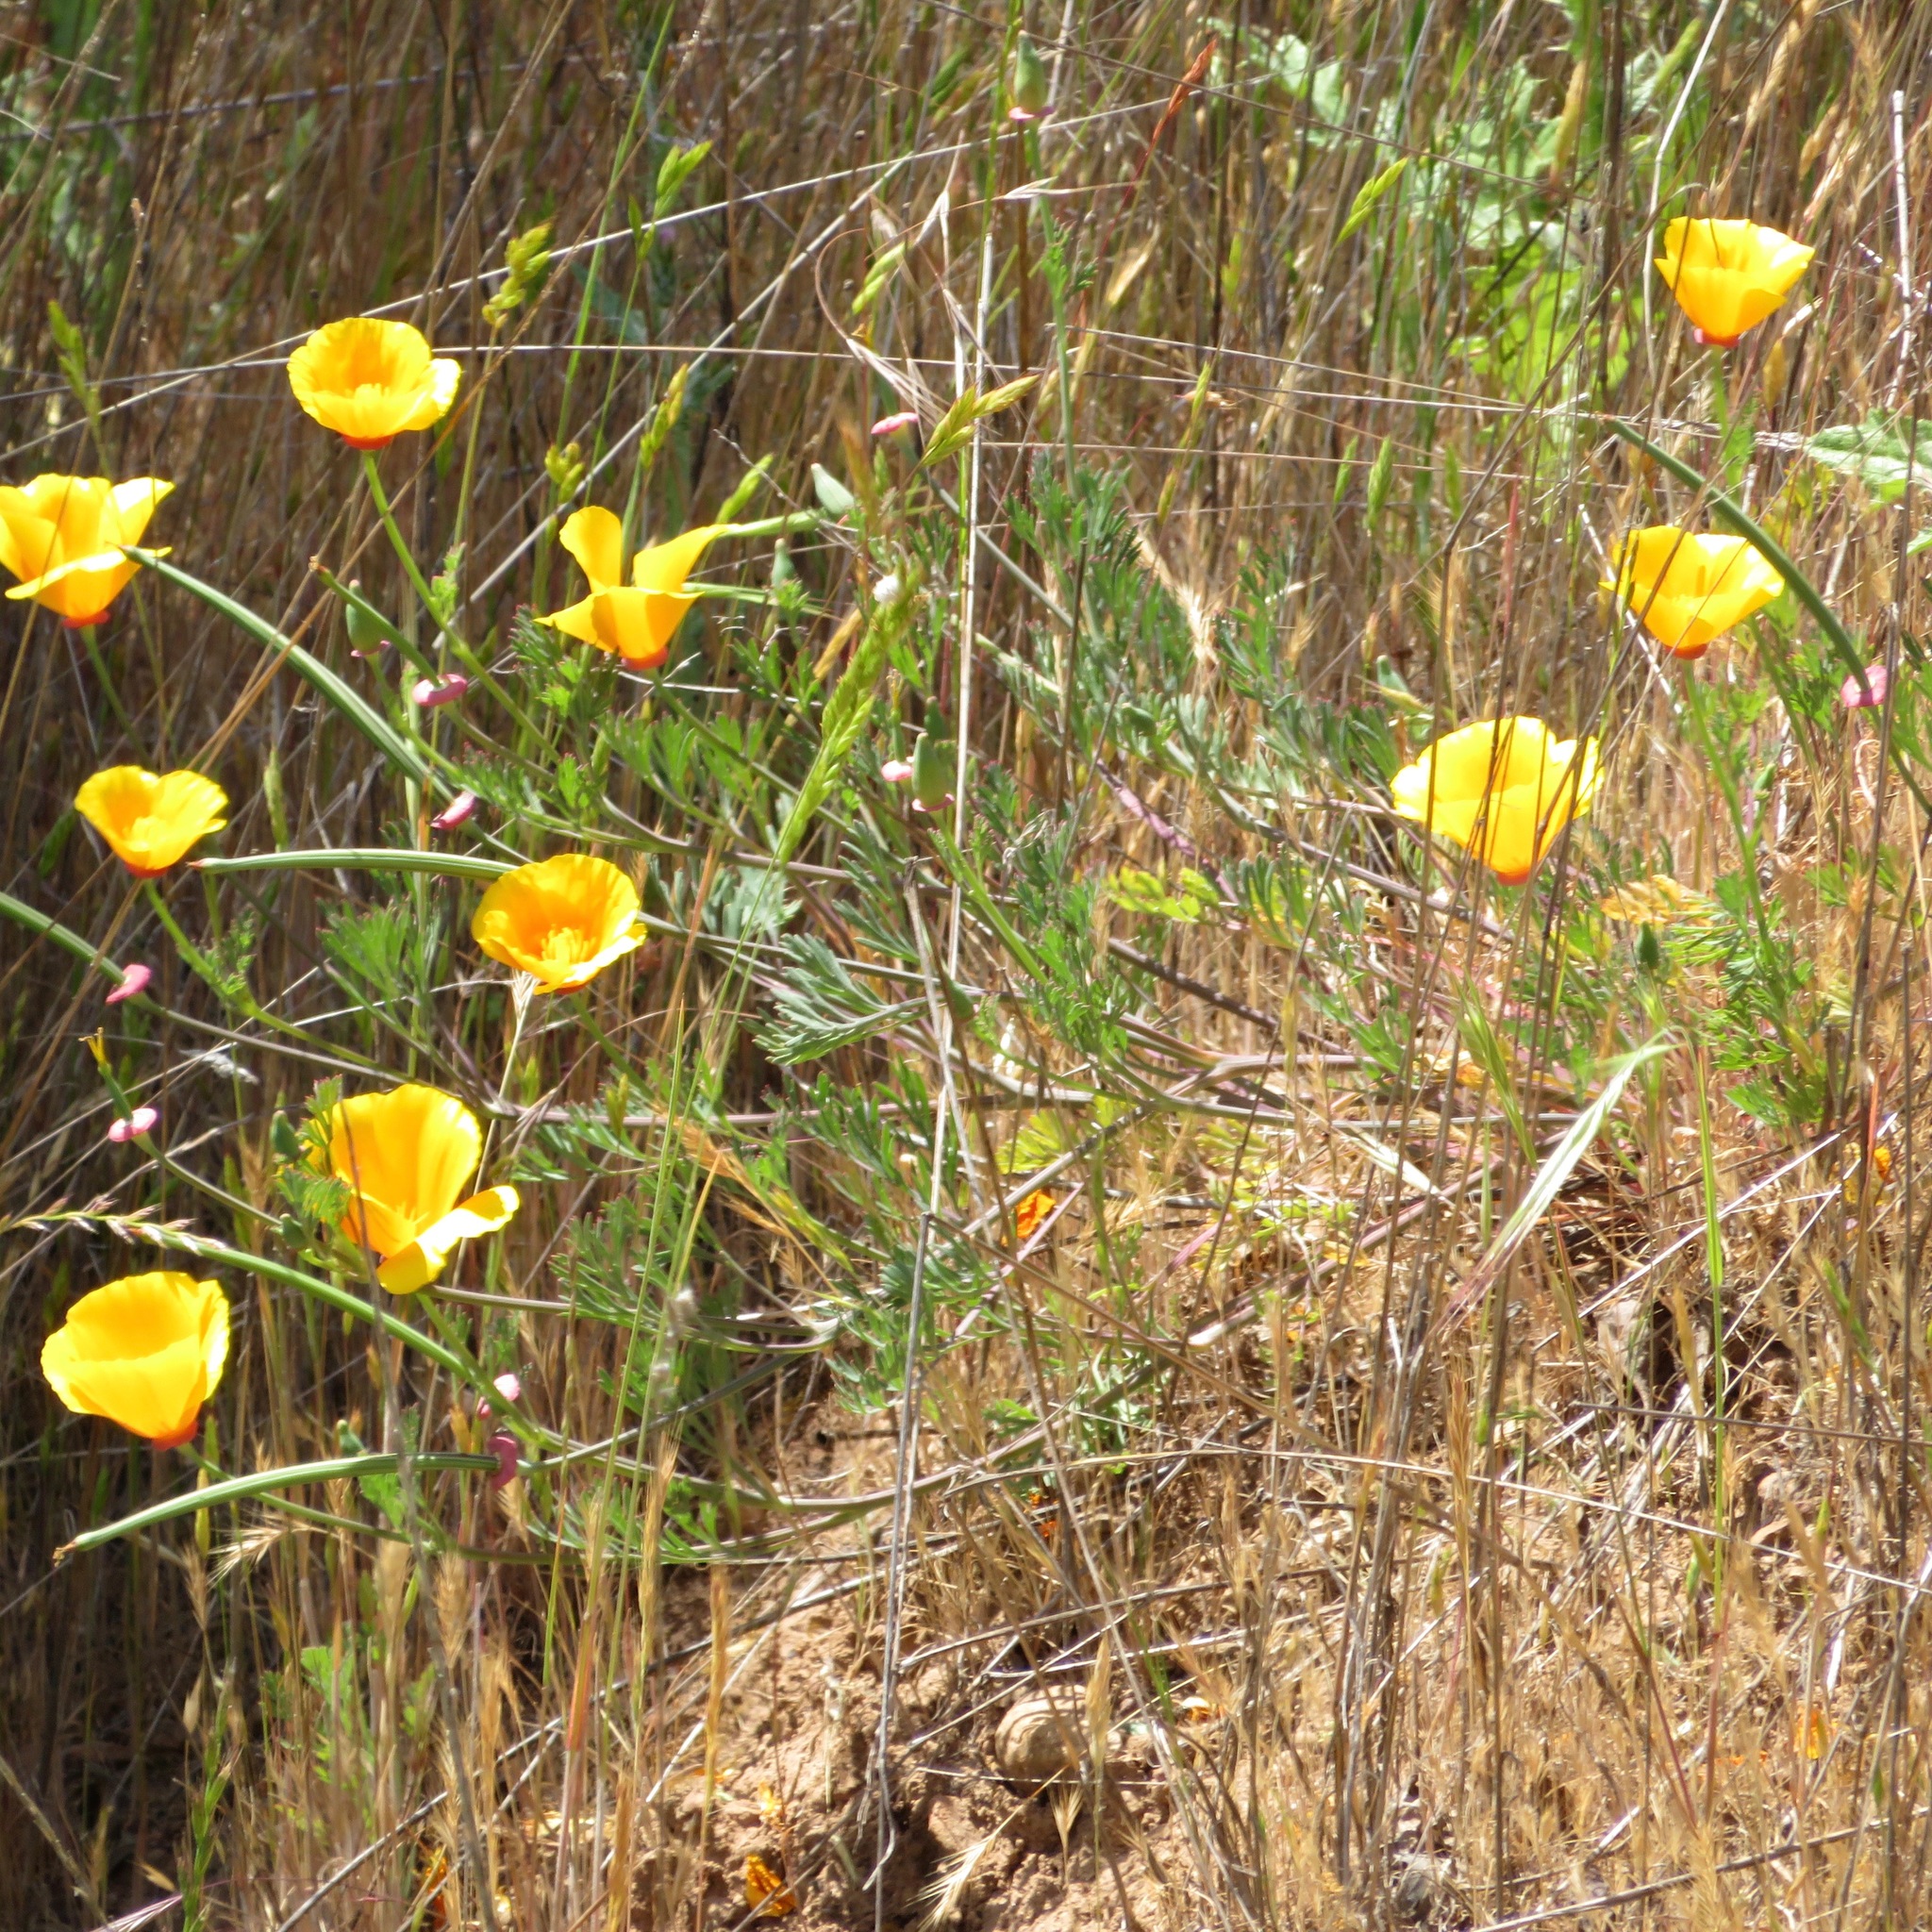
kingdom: Plantae
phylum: Tracheophyta
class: Magnoliopsida
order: Ranunculales
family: Papaveraceae
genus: Eschscholzia
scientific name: Eschscholzia californica
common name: California poppy
